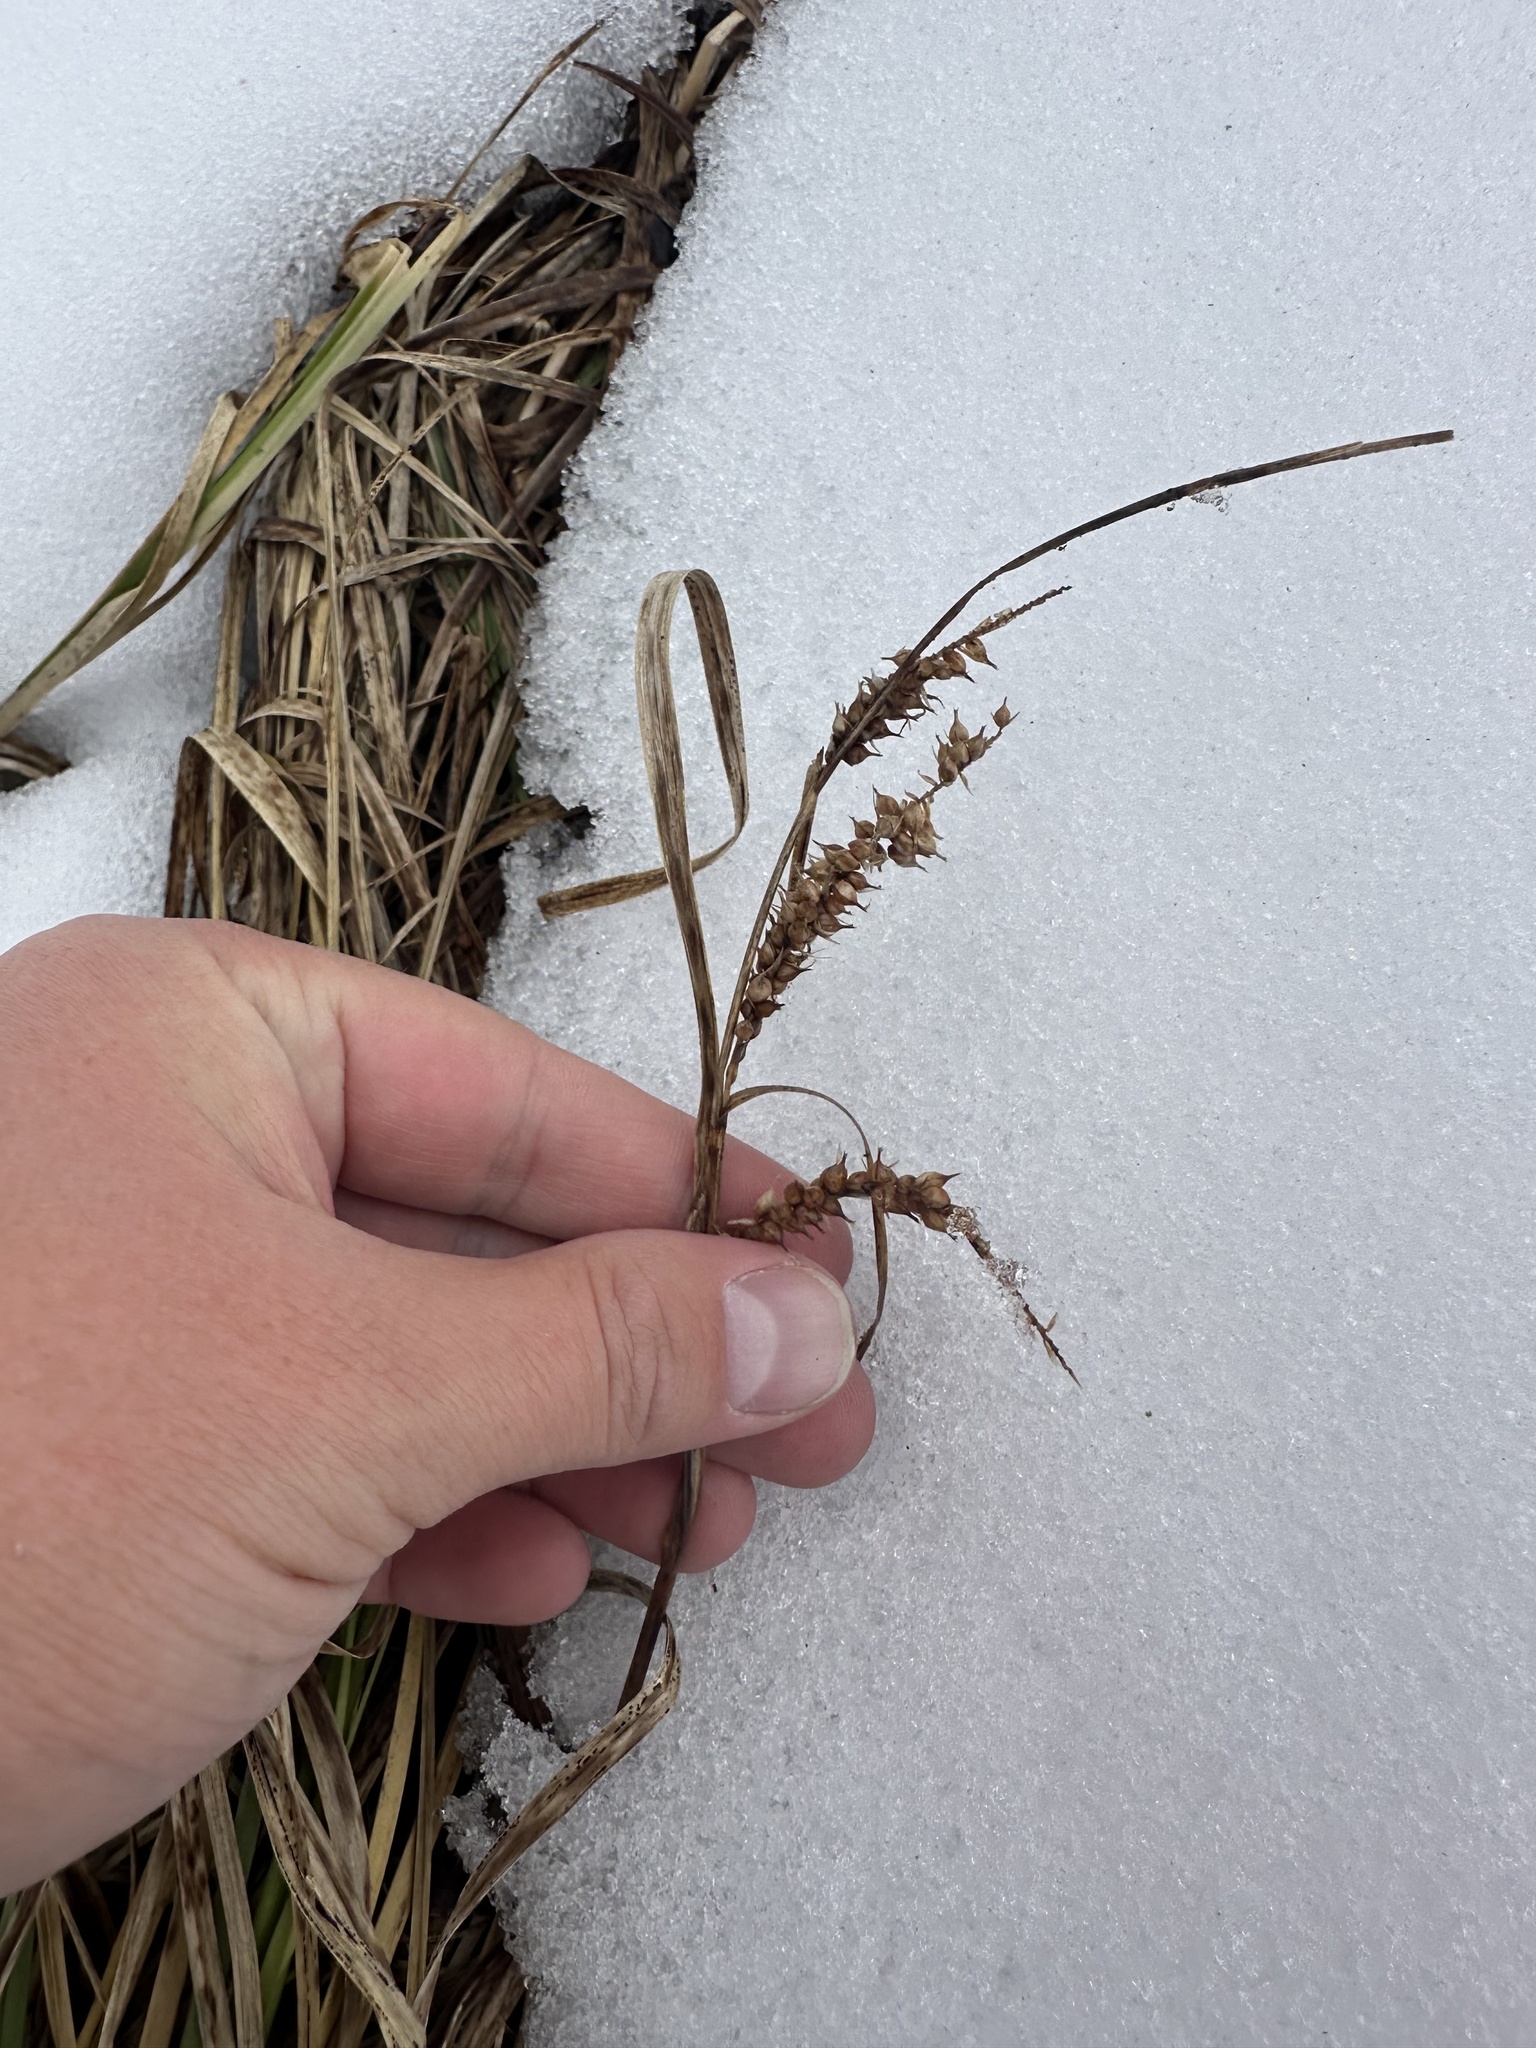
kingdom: Plantae
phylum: Tracheophyta
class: Liliopsida
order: Poales
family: Cyperaceae
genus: Carex
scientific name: Carex utriculata
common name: Beaked sedge
